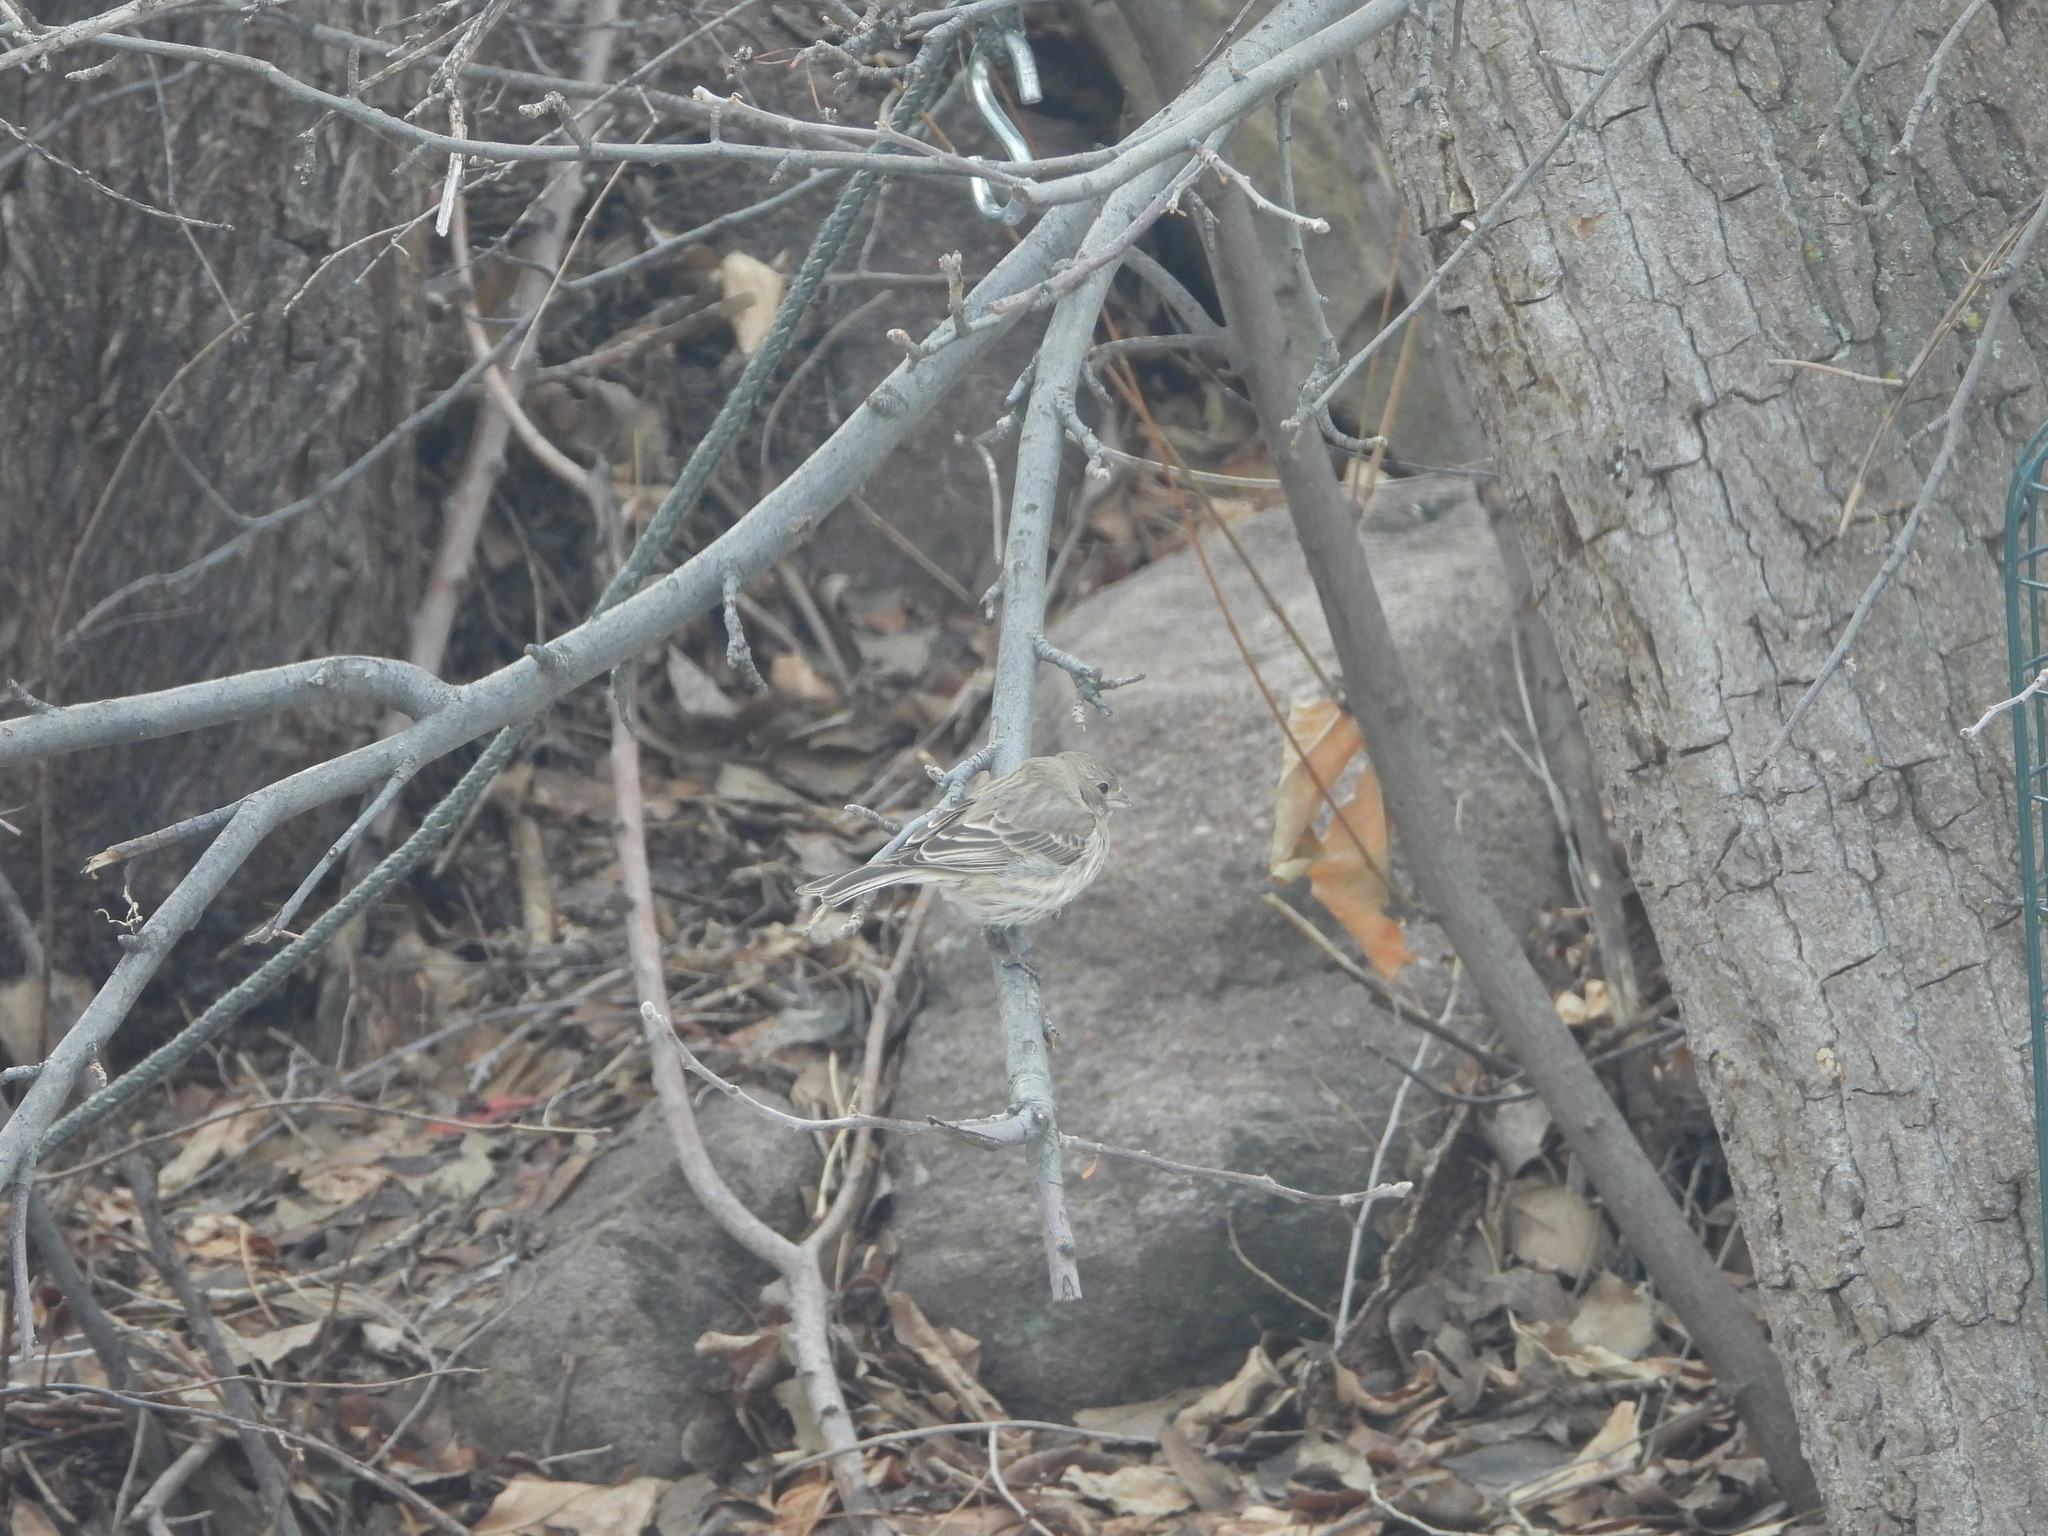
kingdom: Animalia
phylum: Chordata
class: Aves
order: Passeriformes
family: Fringillidae
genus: Haemorhous
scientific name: Haemorhous mexicanus
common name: House finch
